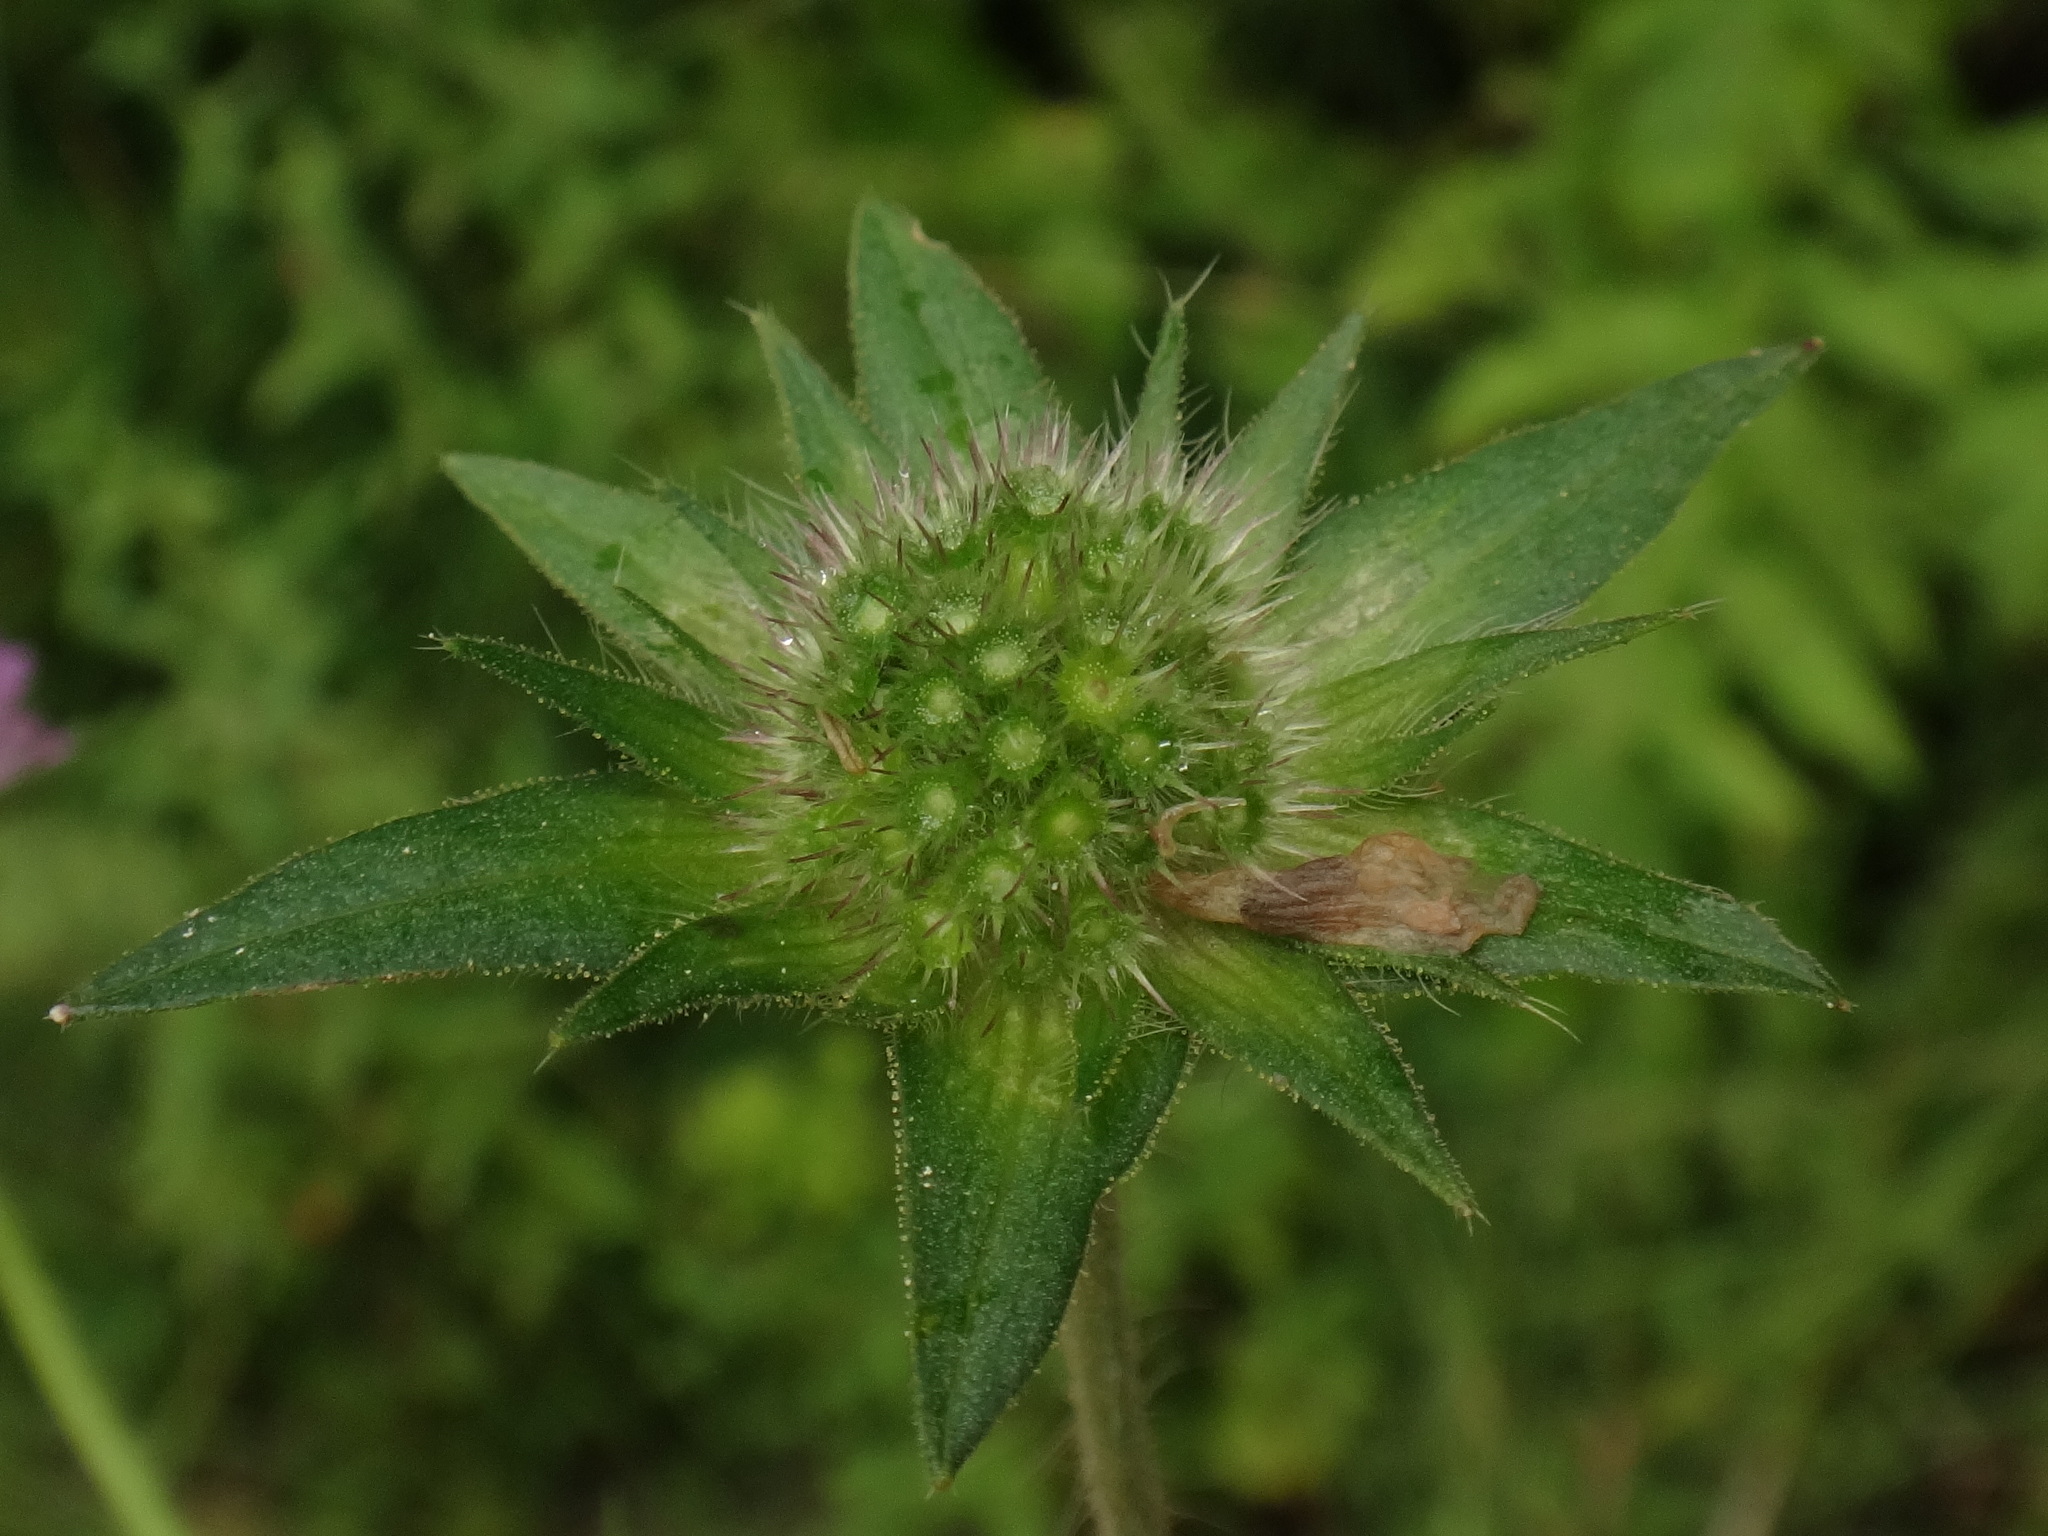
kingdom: Plantae
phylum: Tracheophyta
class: Magnoliopsida
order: Dipsacales
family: Caprifoliaceae
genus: Knautia
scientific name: Knautia dipsacifolia
